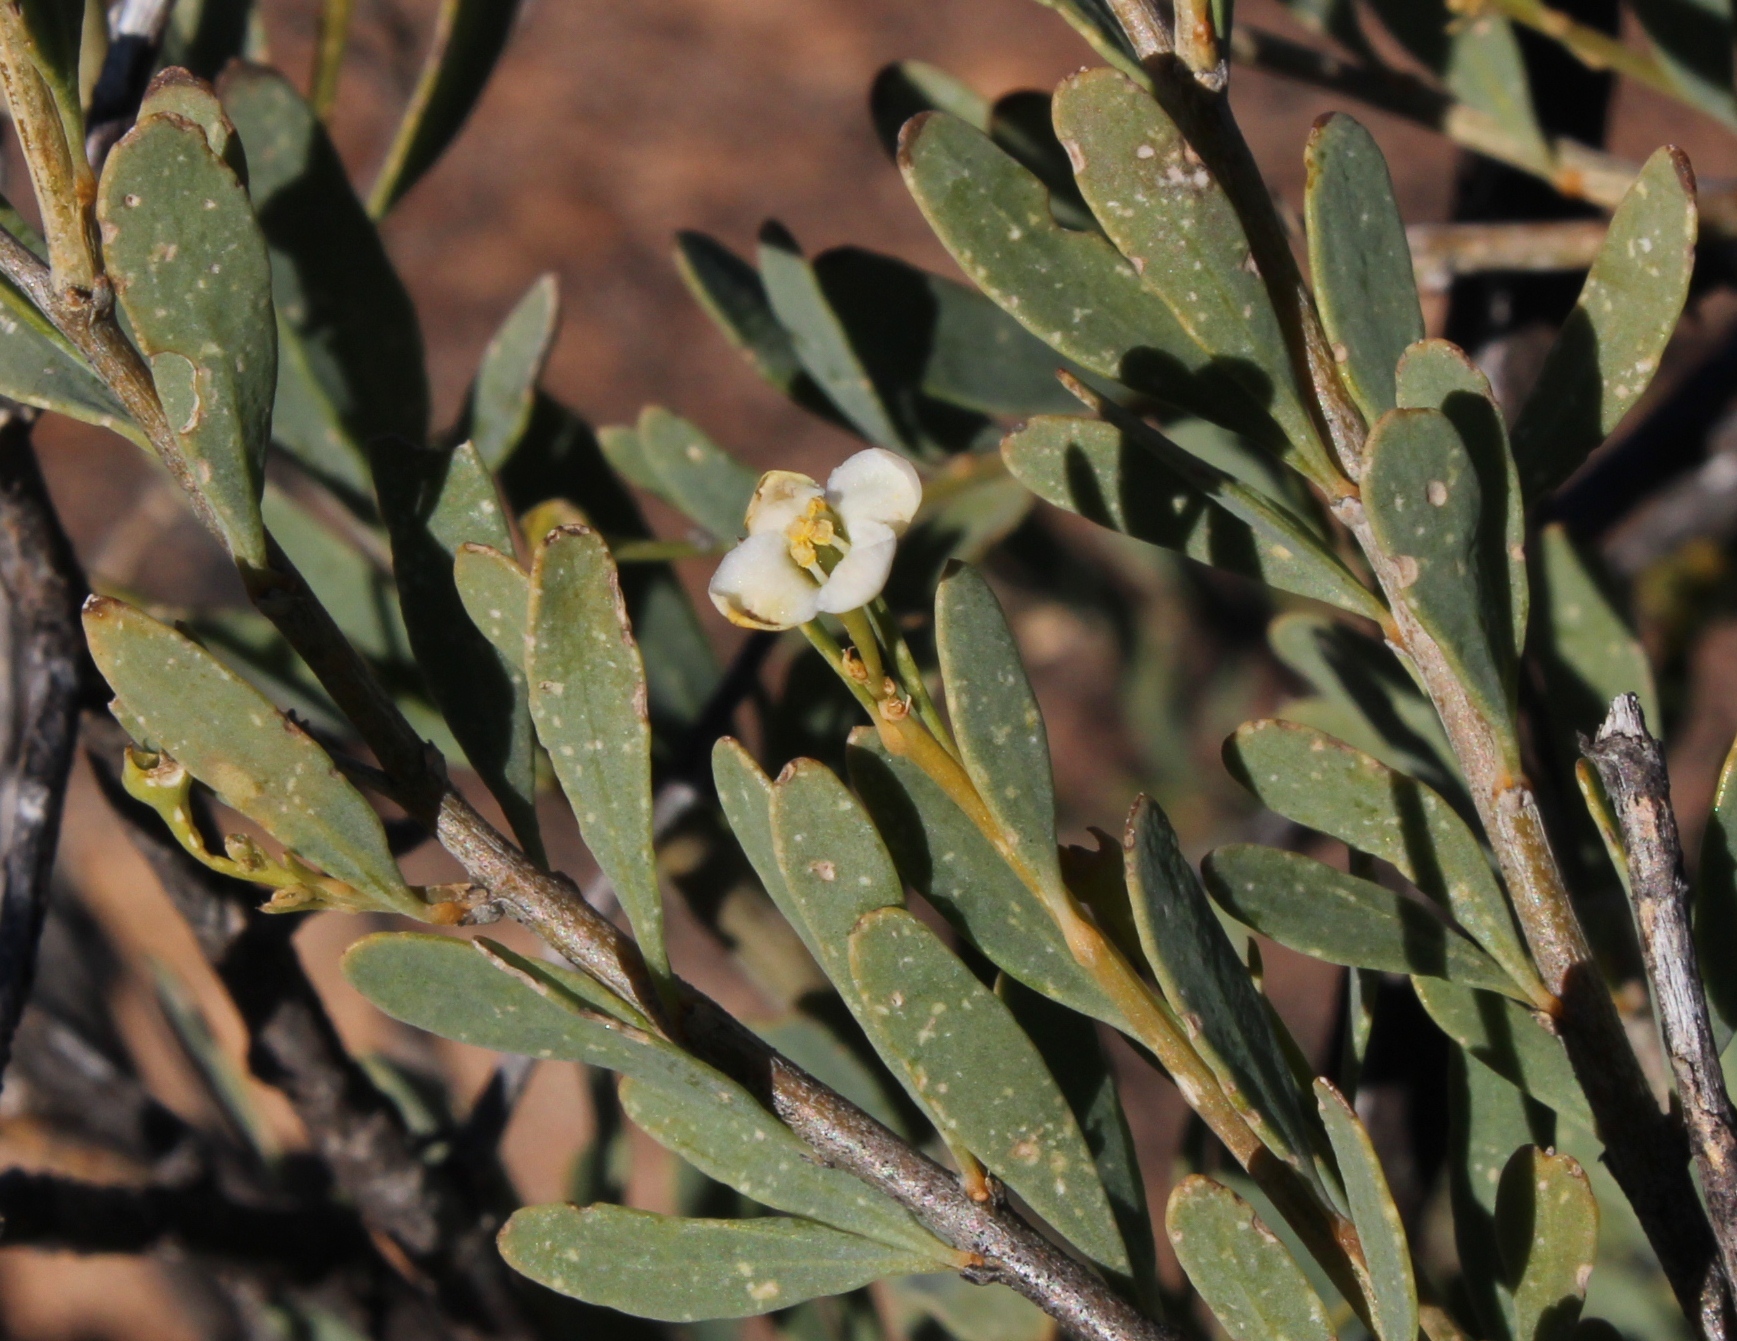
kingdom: Plantae
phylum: Tracheophyta
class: Magnoliopsida
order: Solanales
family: Montiniaceae
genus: Montinia
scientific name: Montinia caryophyllacea
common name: Wild clove-bush
